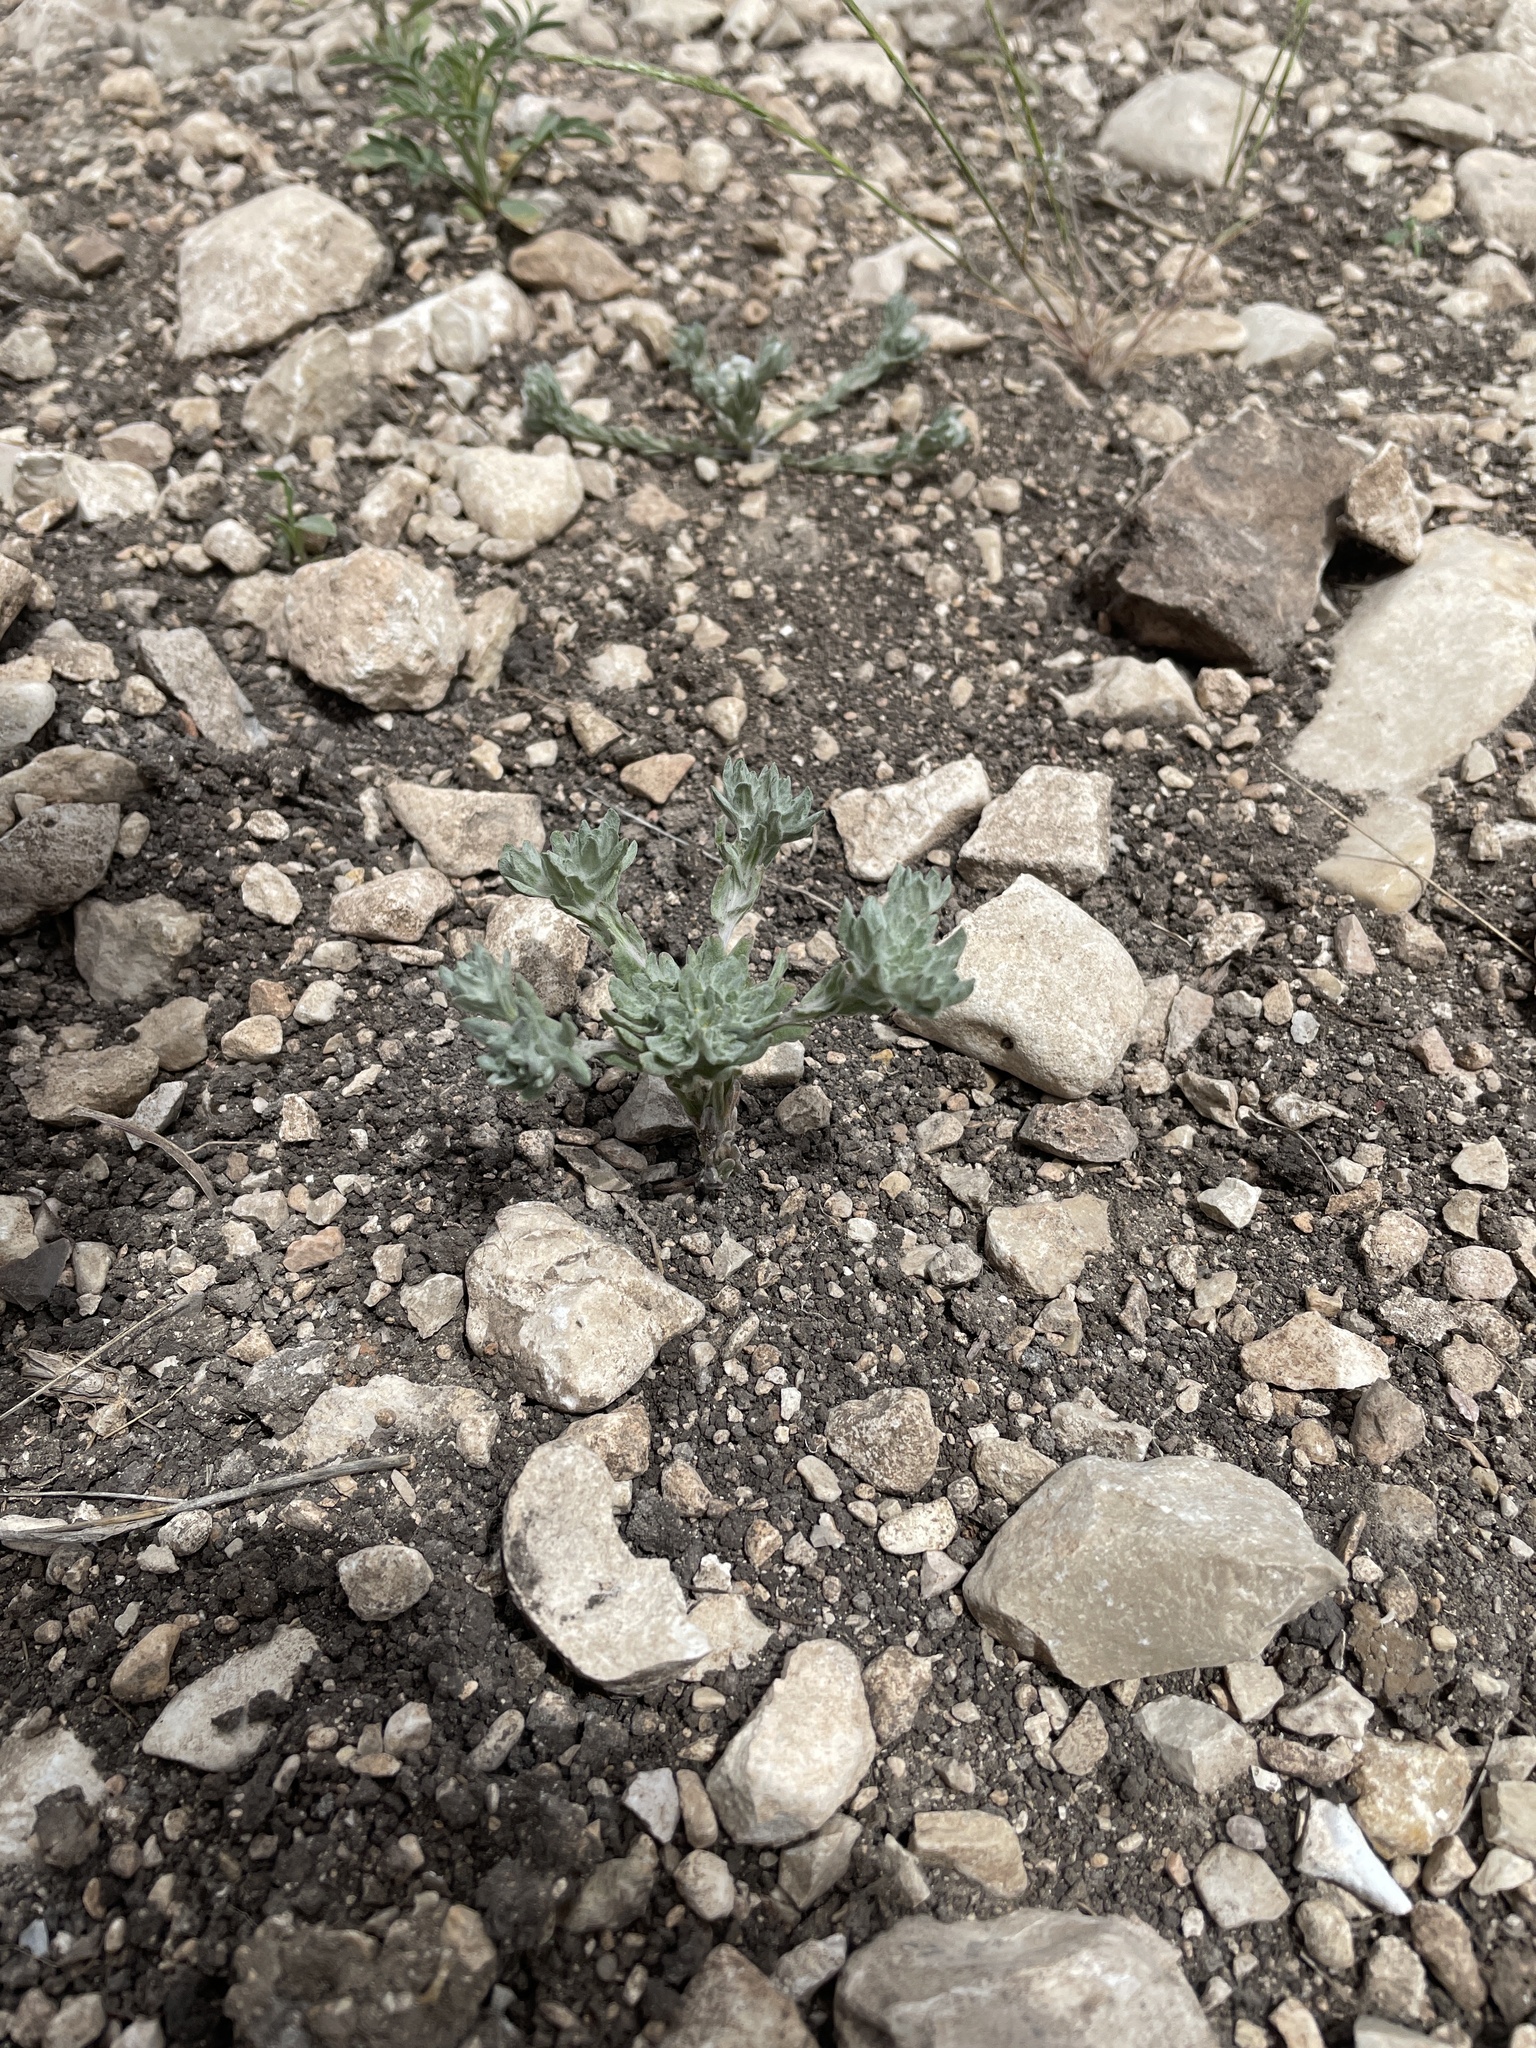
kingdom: Plantae
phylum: Tracheophyta
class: Magnoliopsida
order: Asterales
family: Asteraceae
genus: Diaperia
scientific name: Diaperia prolifera
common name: Big-head rabbit-tobacco
